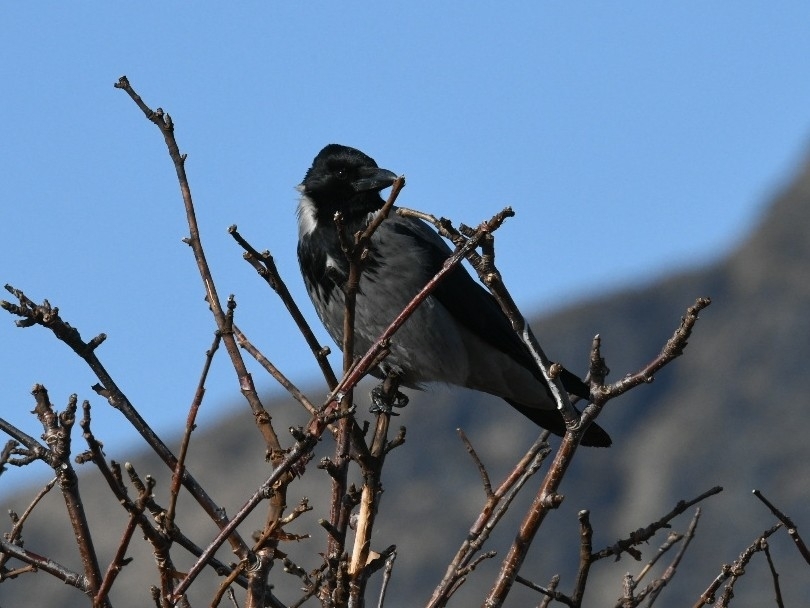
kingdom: Animalia
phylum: Chordata
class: Aves
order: Passeriformes
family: Corvidae
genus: Corvus
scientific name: Corvus cornix
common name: Hooded crow
